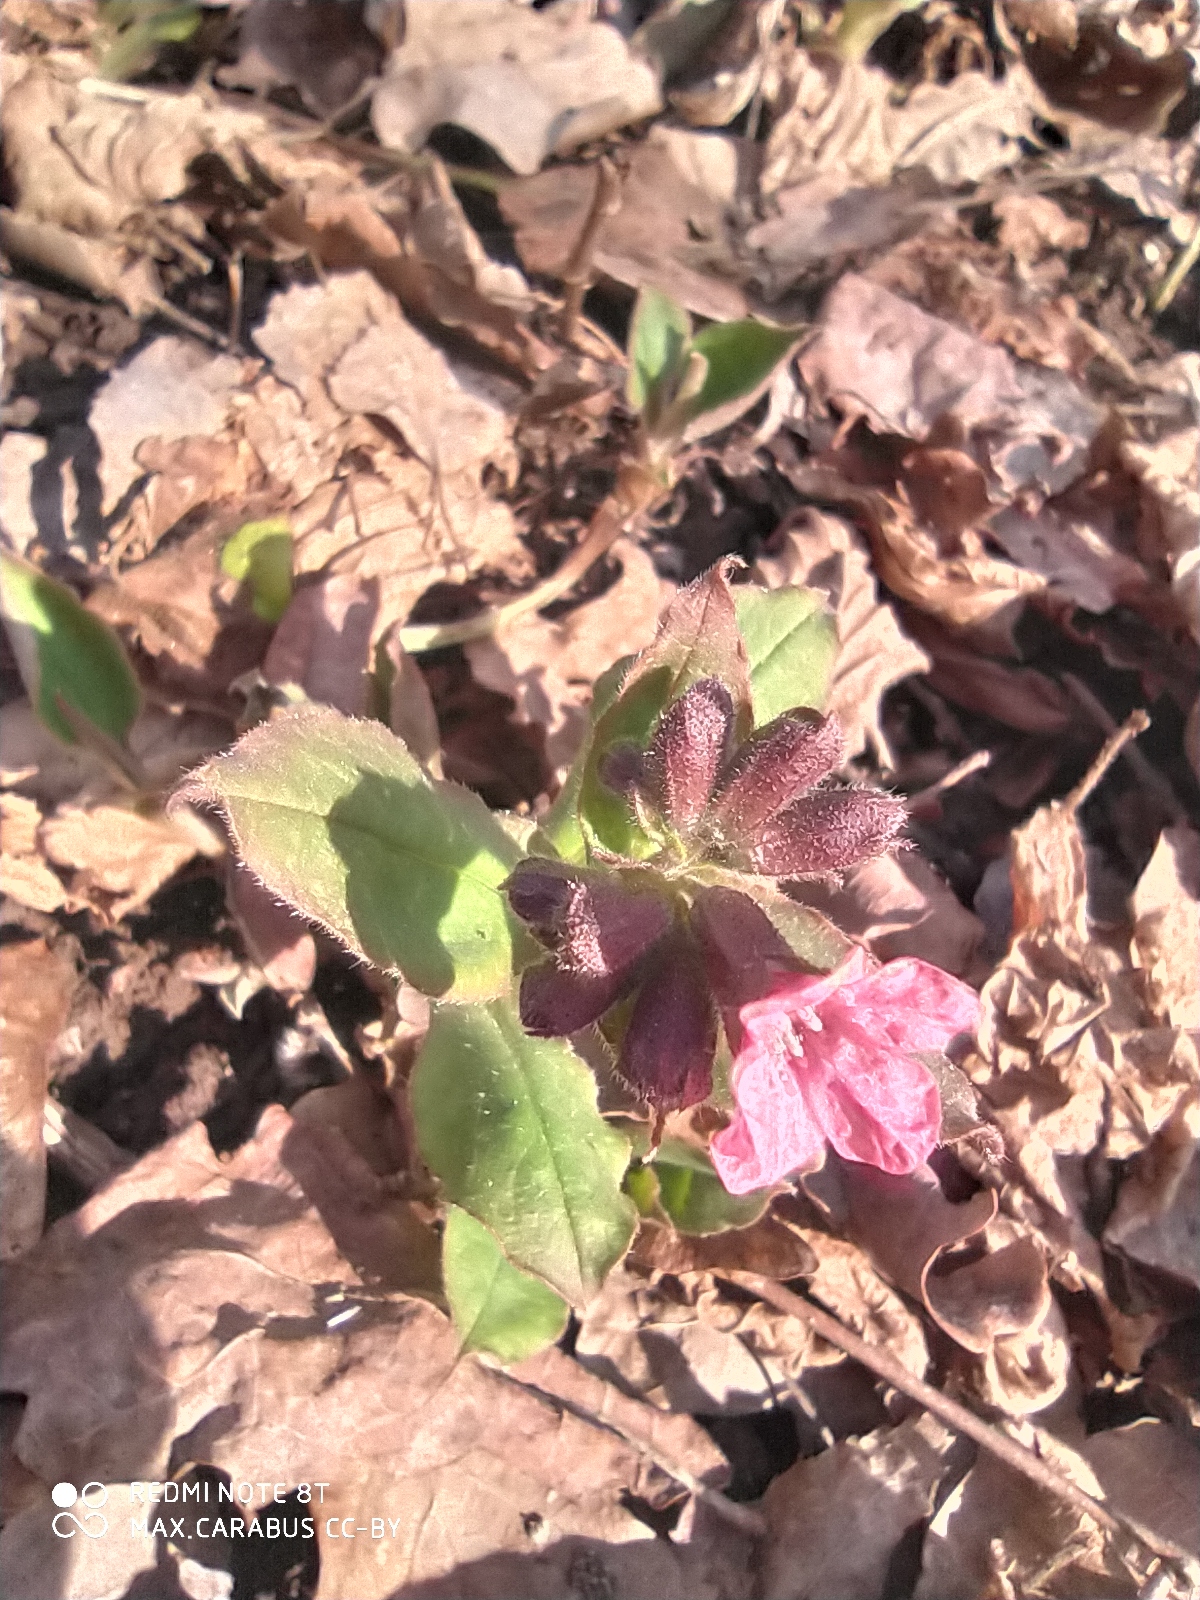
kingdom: Plantae
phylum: Tracheophyta
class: Magnoliopsida
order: Boraginales
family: Boraginaceae
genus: Pulmonaria
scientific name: Pulmonaria obscura
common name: Suffolk lungwort
